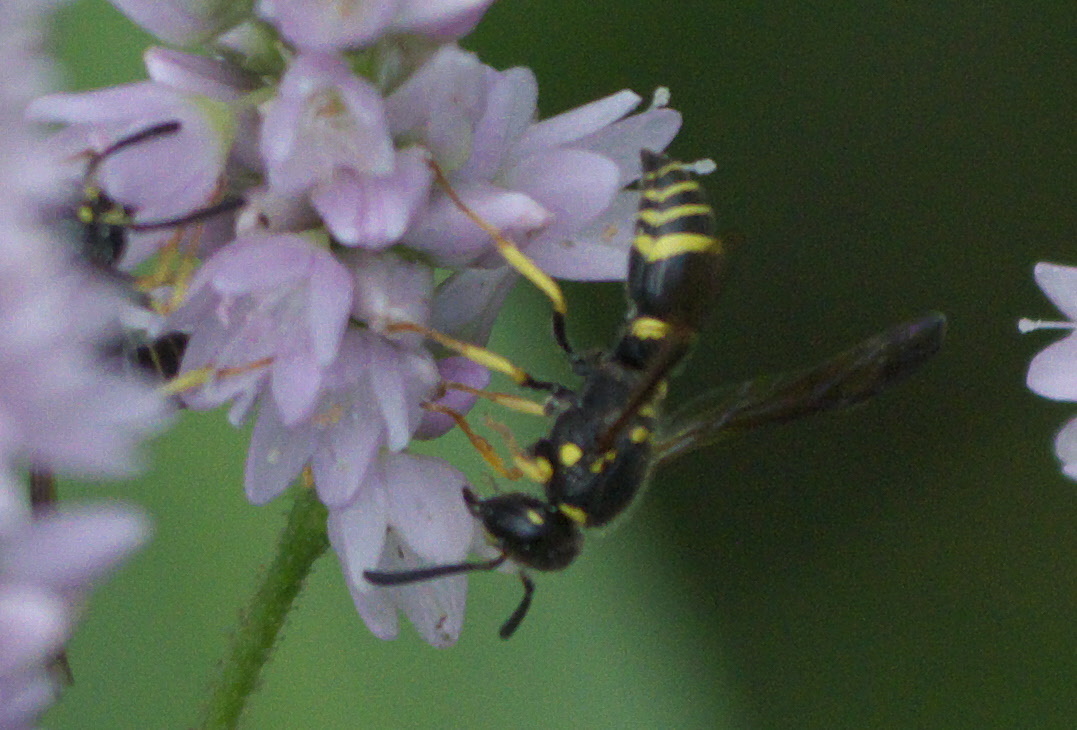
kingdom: Animalia
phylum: Arthropoda
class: Insecta
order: Hymenoptera
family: Vespidae
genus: Ancistrocerus
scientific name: Ancistrocerus adiabatus
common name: Bramble mason wasp
